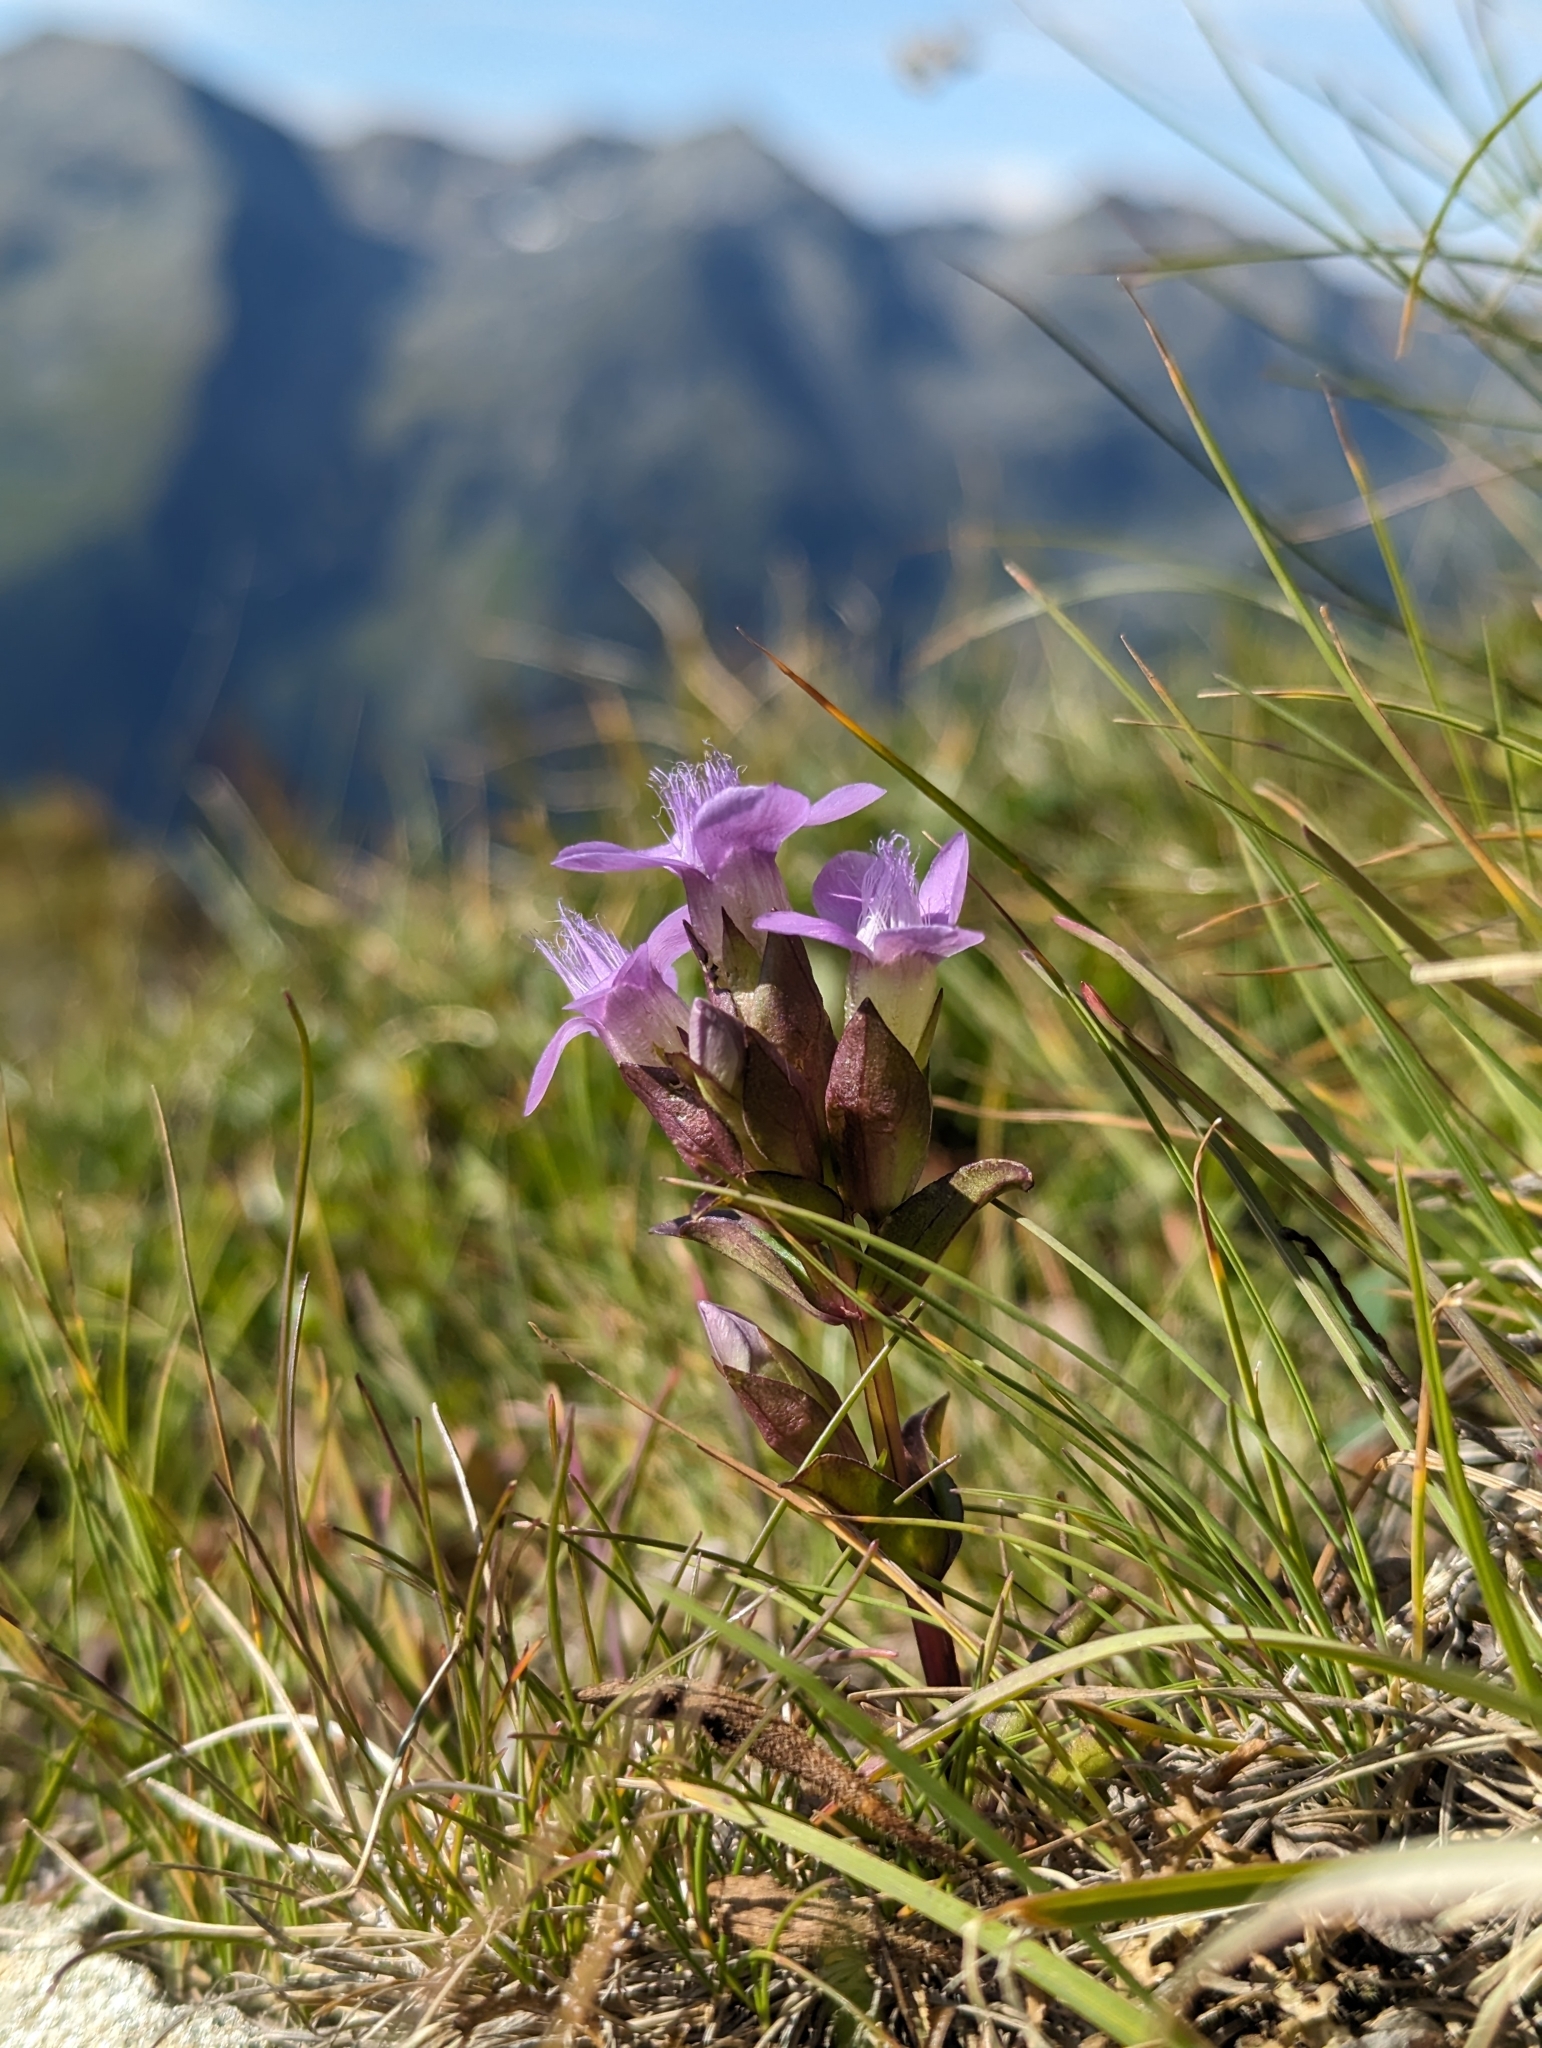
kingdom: Plantae
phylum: Tracheophyta
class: Magnoliopsida
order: Gentianales
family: Gentianaceae
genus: Gentianella
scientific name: Gentianella campestris
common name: Field gentian
